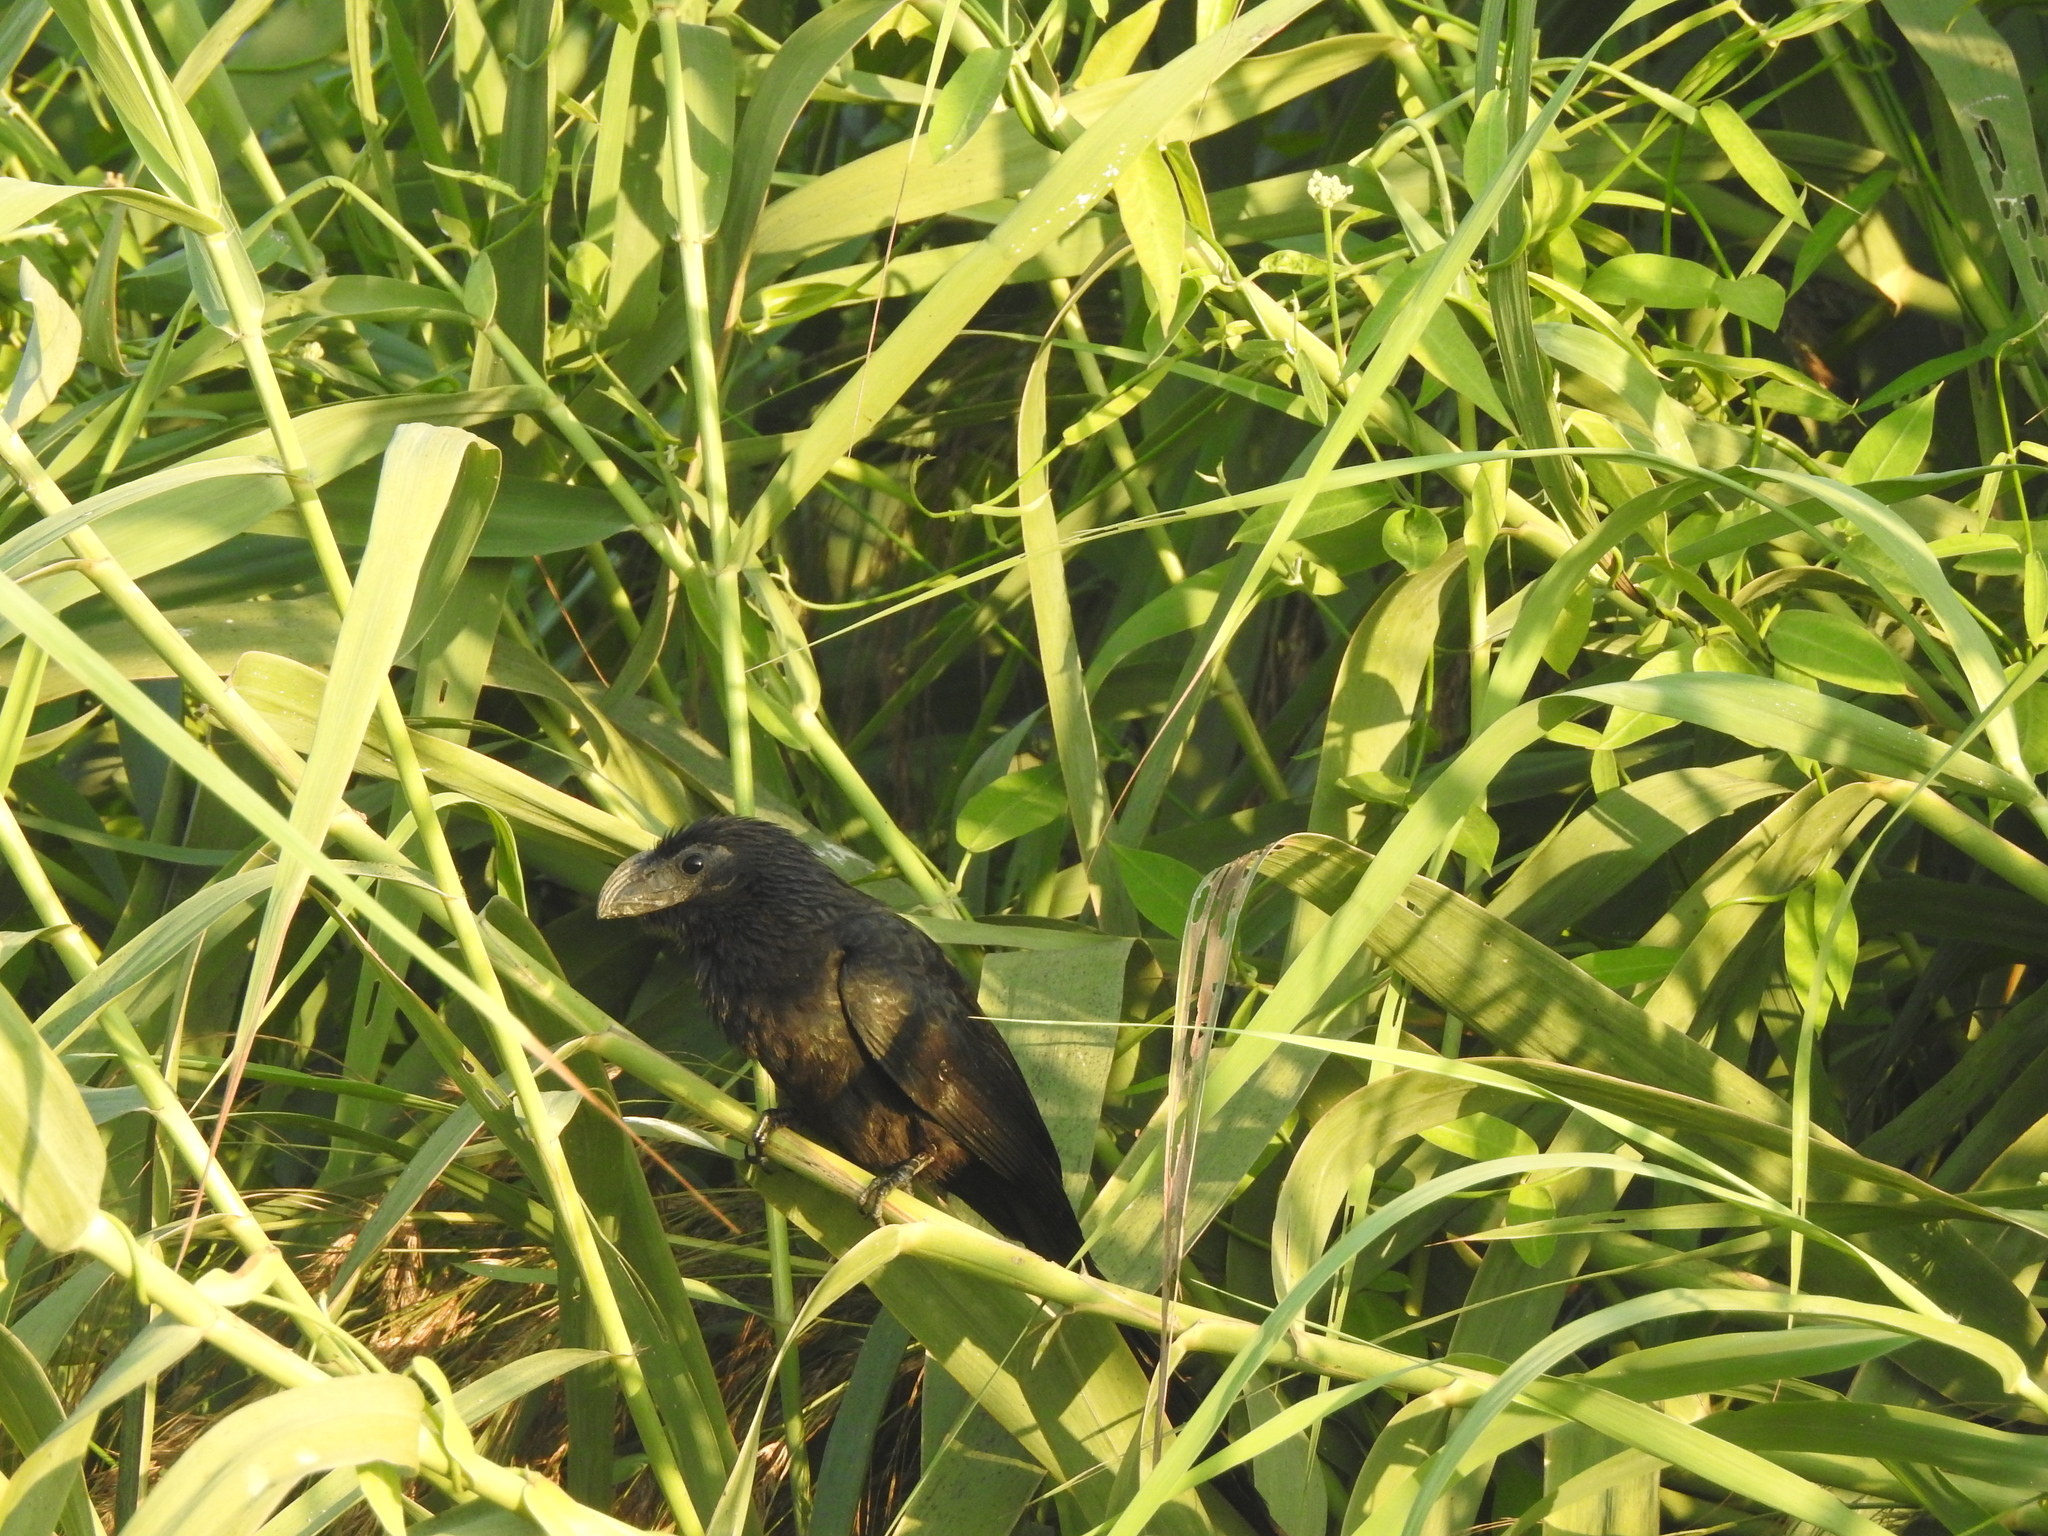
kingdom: Animalia
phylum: Chordata
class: Aves
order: Cuculiformes
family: Cuculidae
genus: Crotophaga
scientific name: Crotophaga sulcirostris
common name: Groove-billed ani
